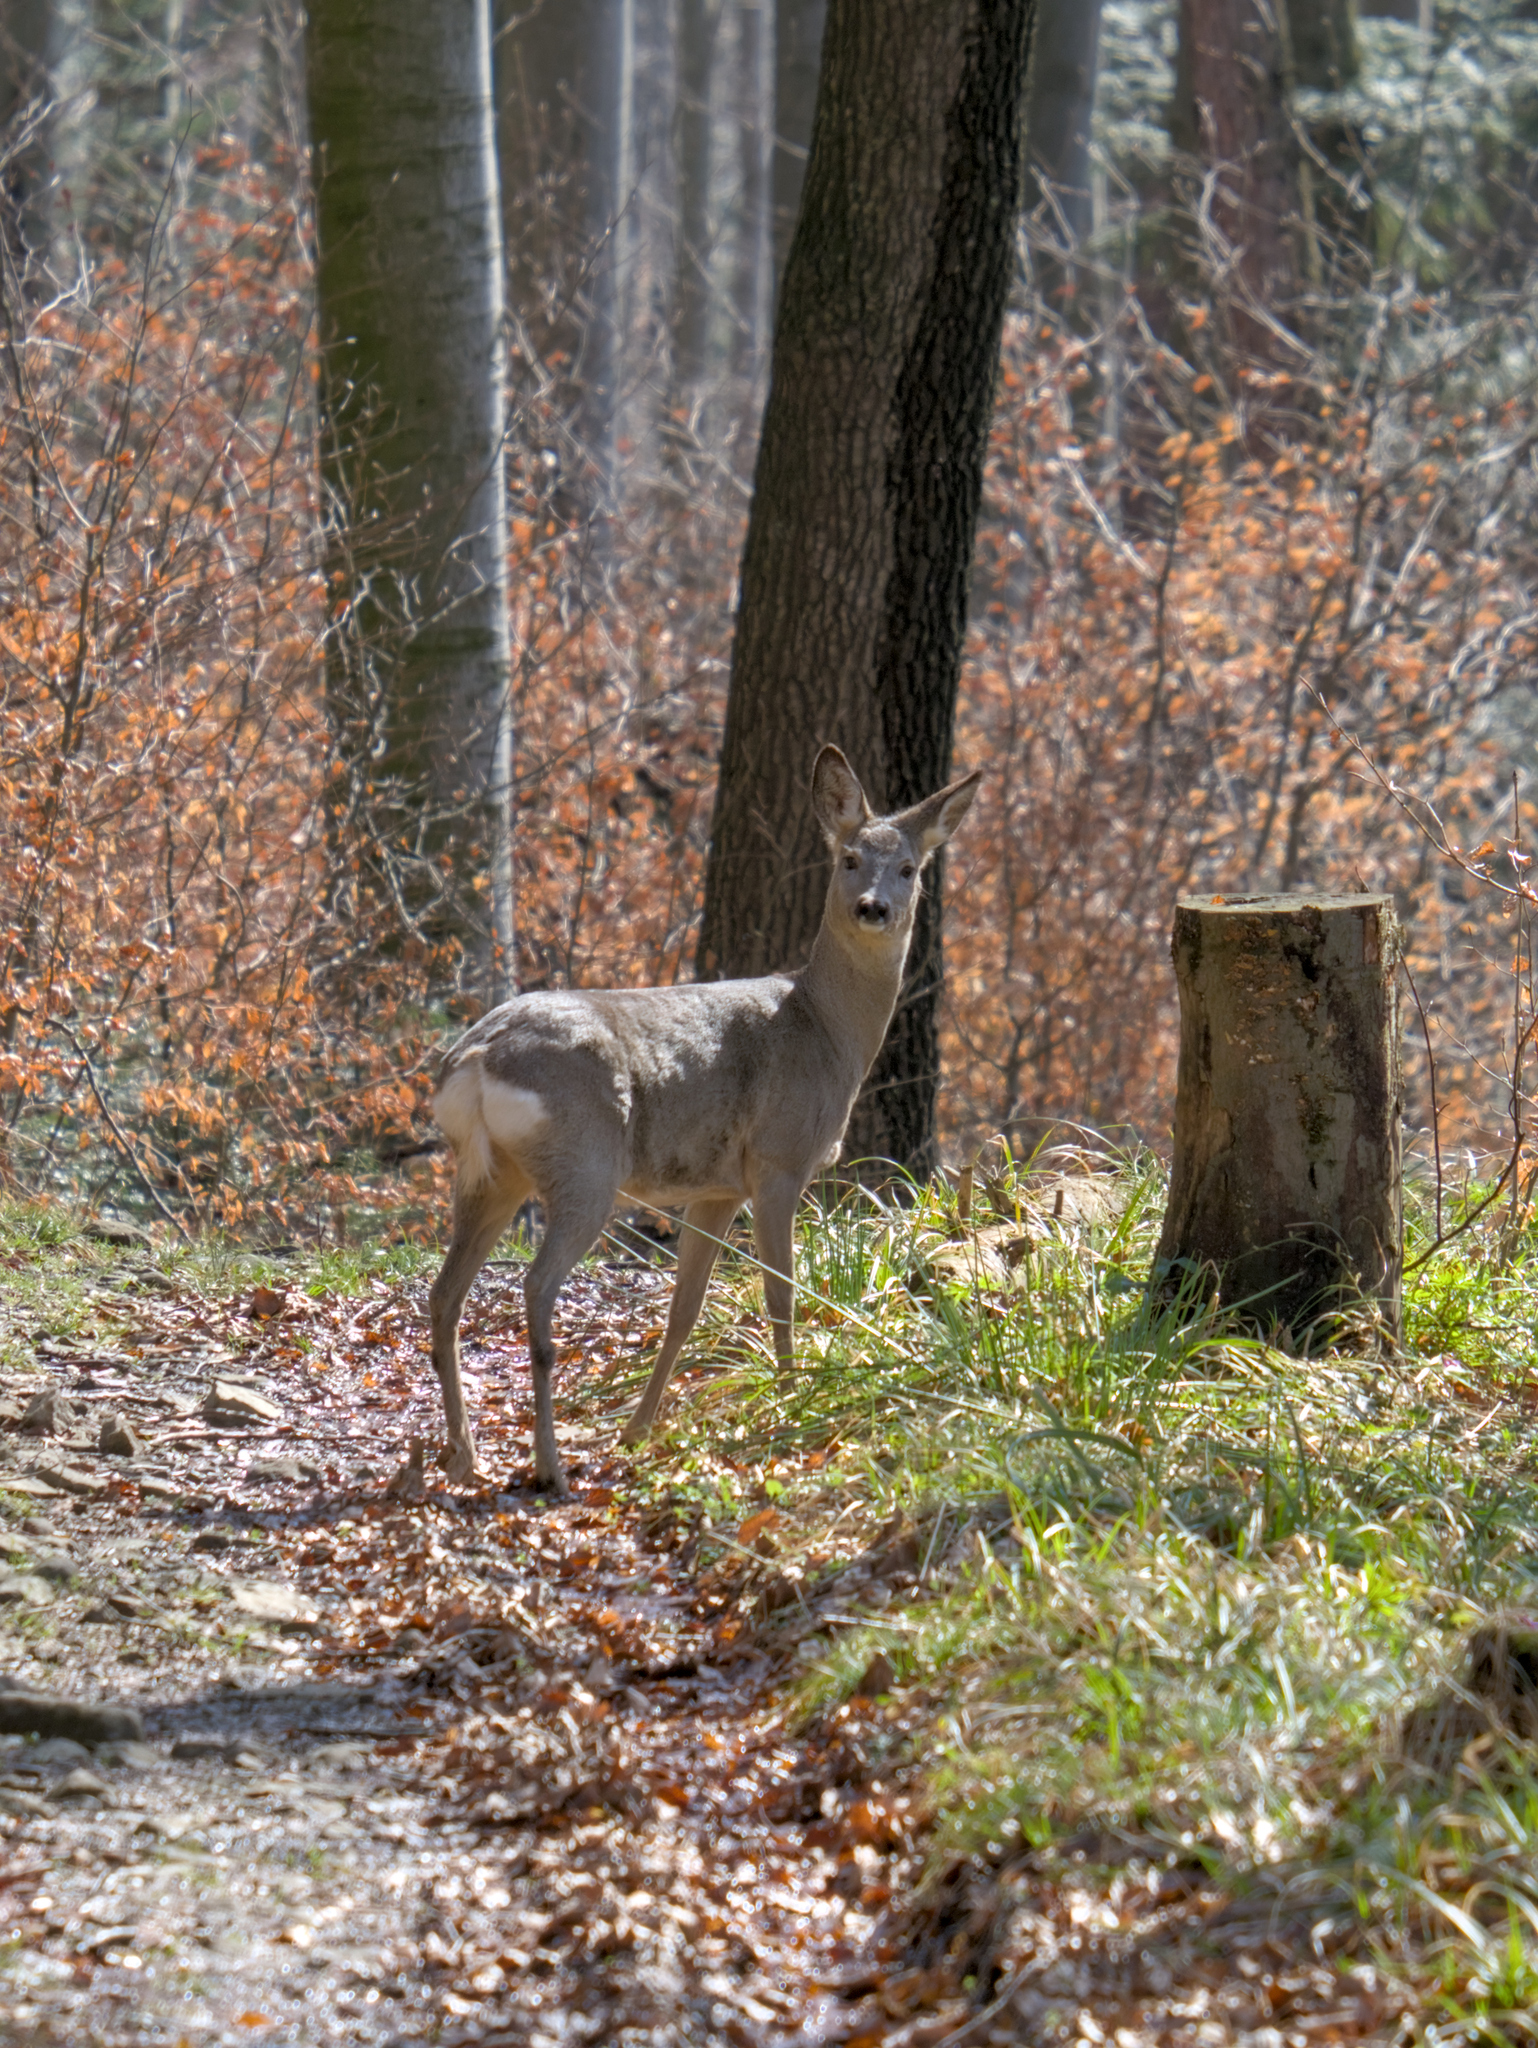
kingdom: Animalia
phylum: Chordata
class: Mammalia
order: Artiodactyla
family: Cervidae
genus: Capreolus
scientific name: Capreolus capreolus
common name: Western roe deer
